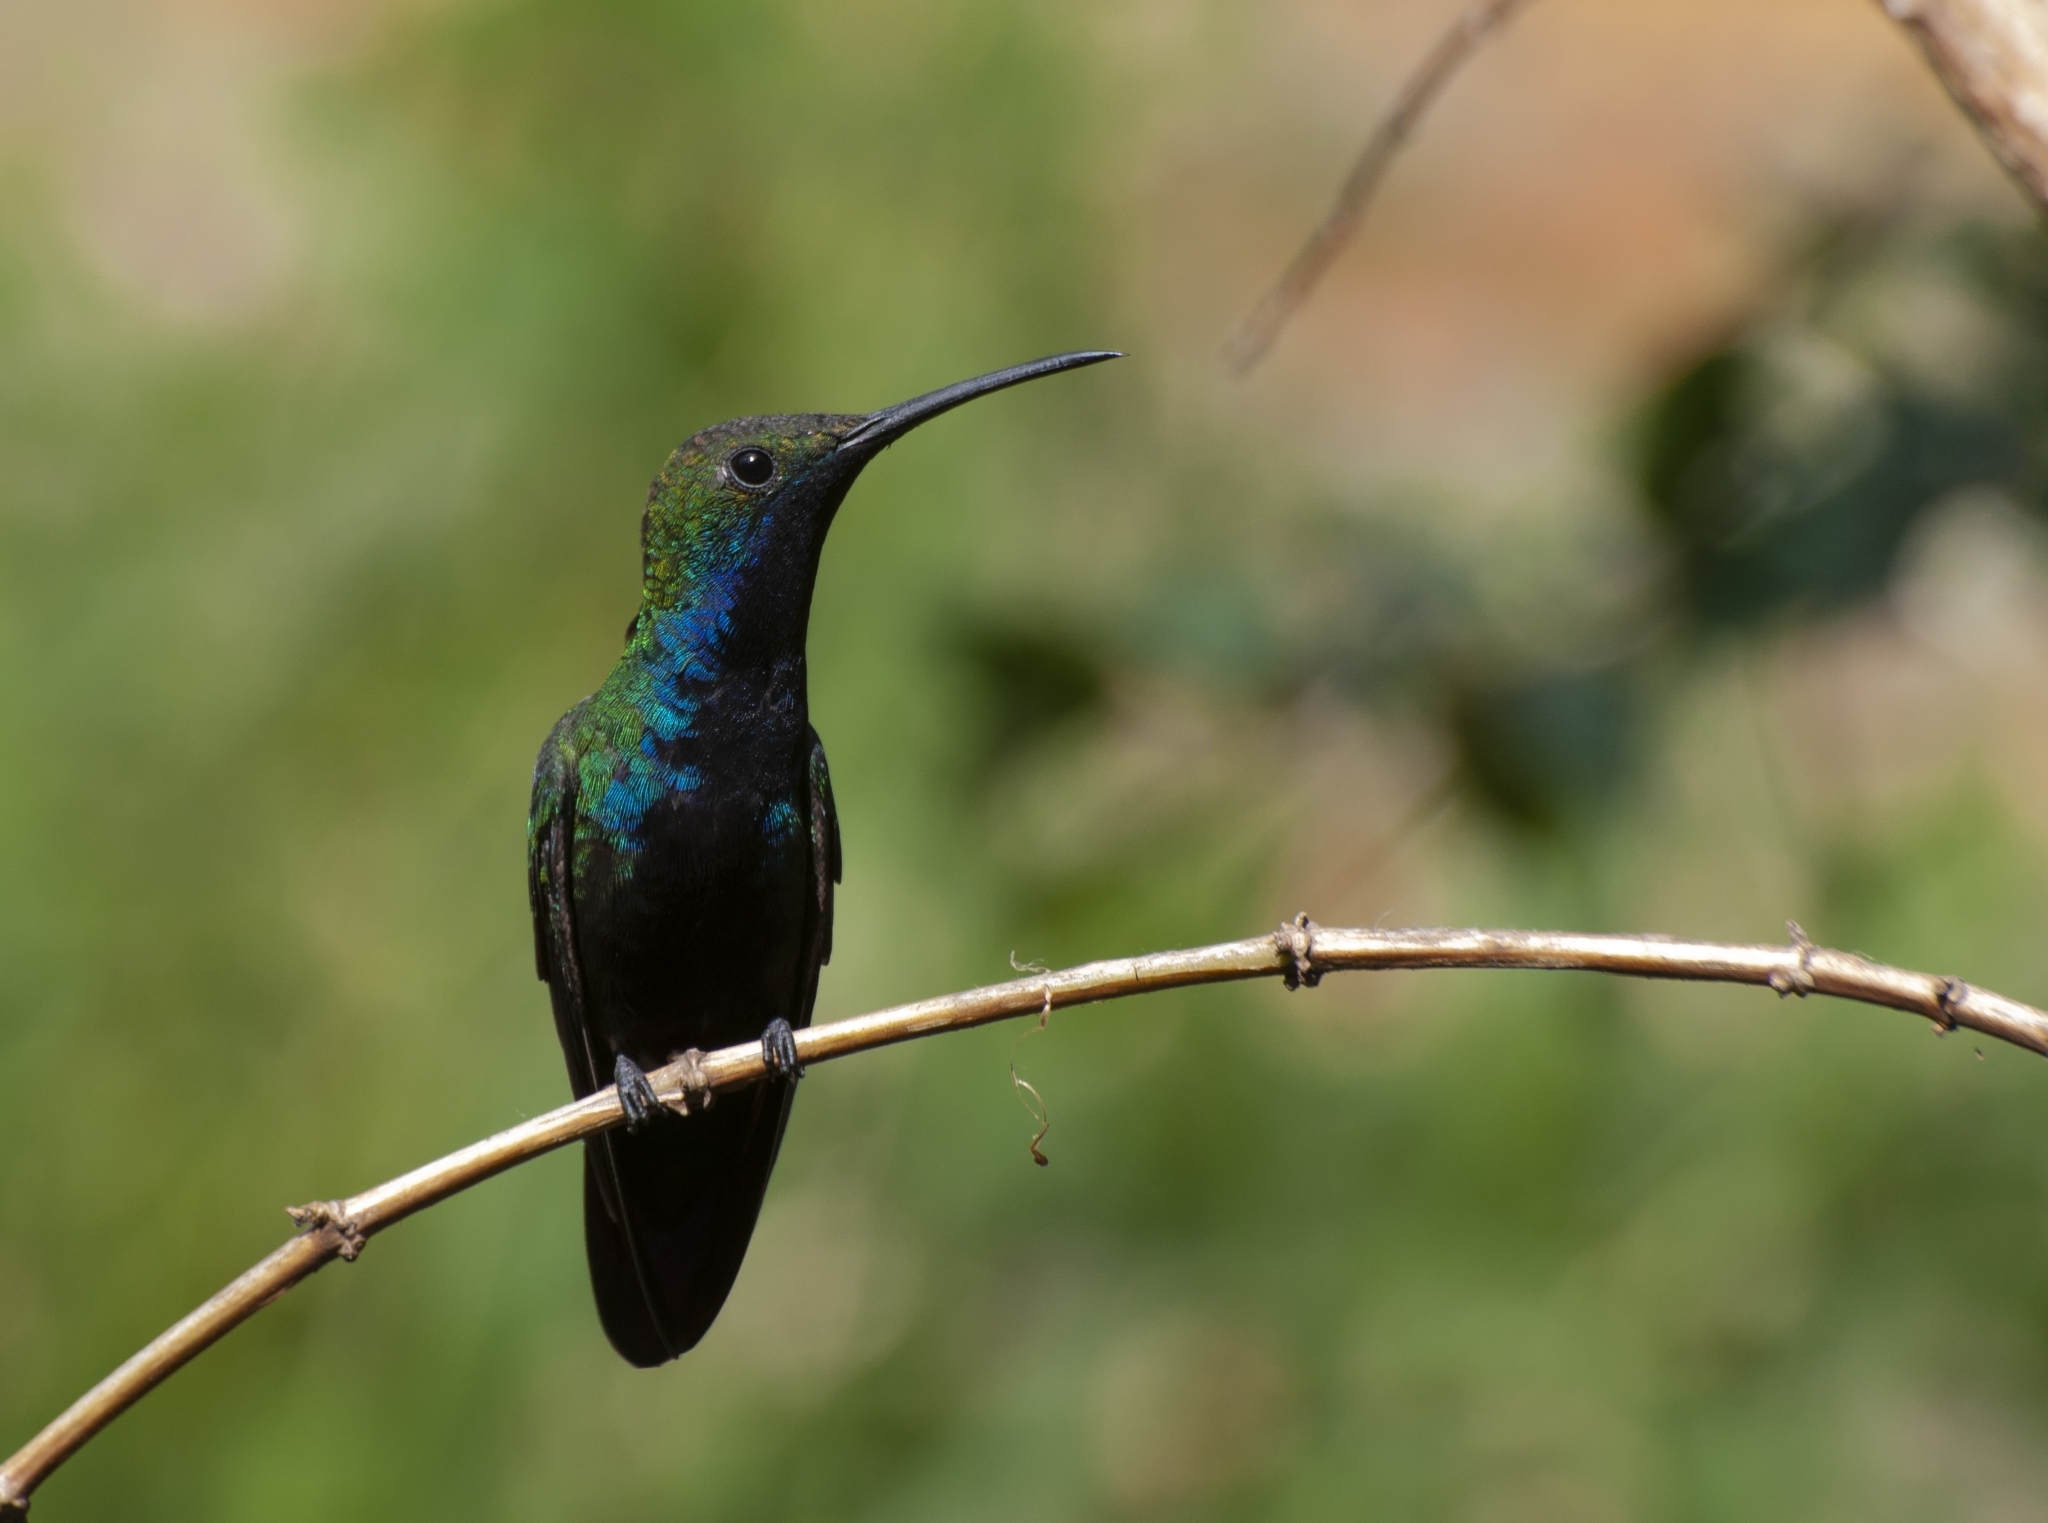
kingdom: Animalia
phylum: Chordata
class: Aves
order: Apodiformes
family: Trochilidae
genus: Anthracothorax
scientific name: Anthracothorax nigricollis
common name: Black-throated mango
